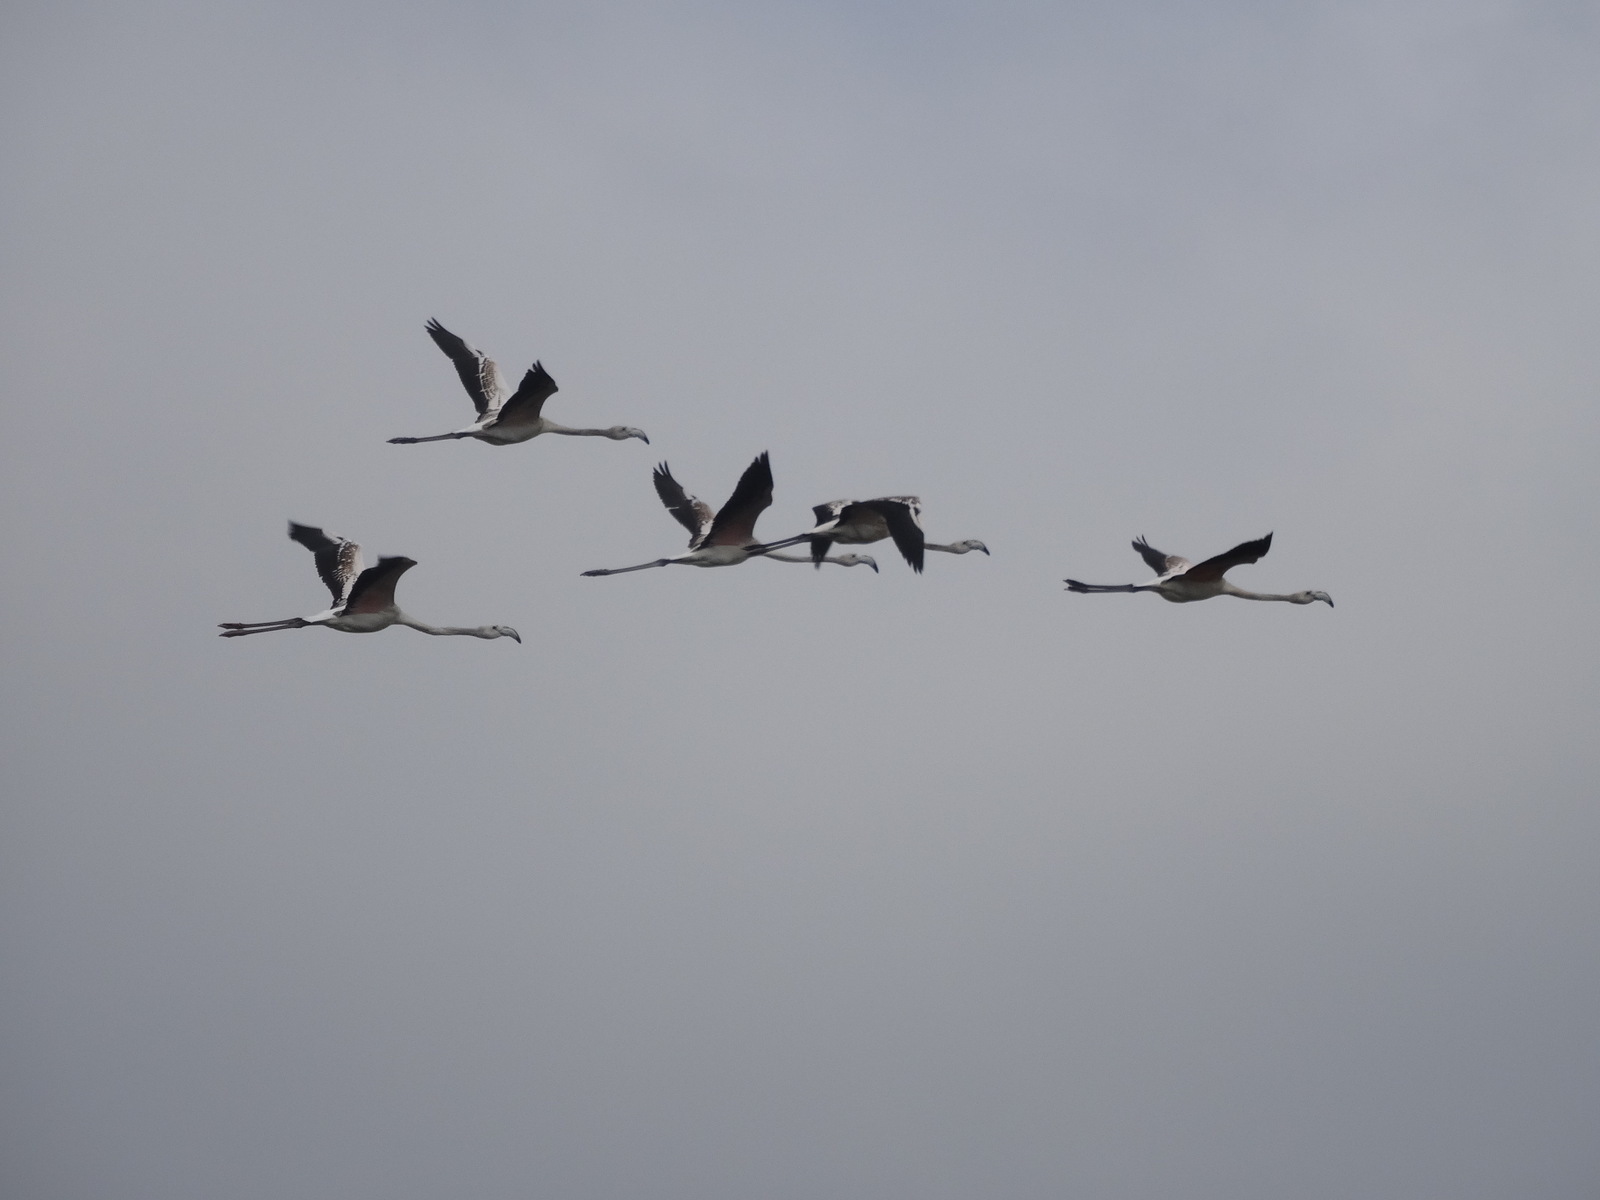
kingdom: Animalia
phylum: Chordata
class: Aves
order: Phoenicopteriformes
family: Phoenicopteridae
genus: Phoenicopterus
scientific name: Phoenicopterus roseus
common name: Greater flamingo
